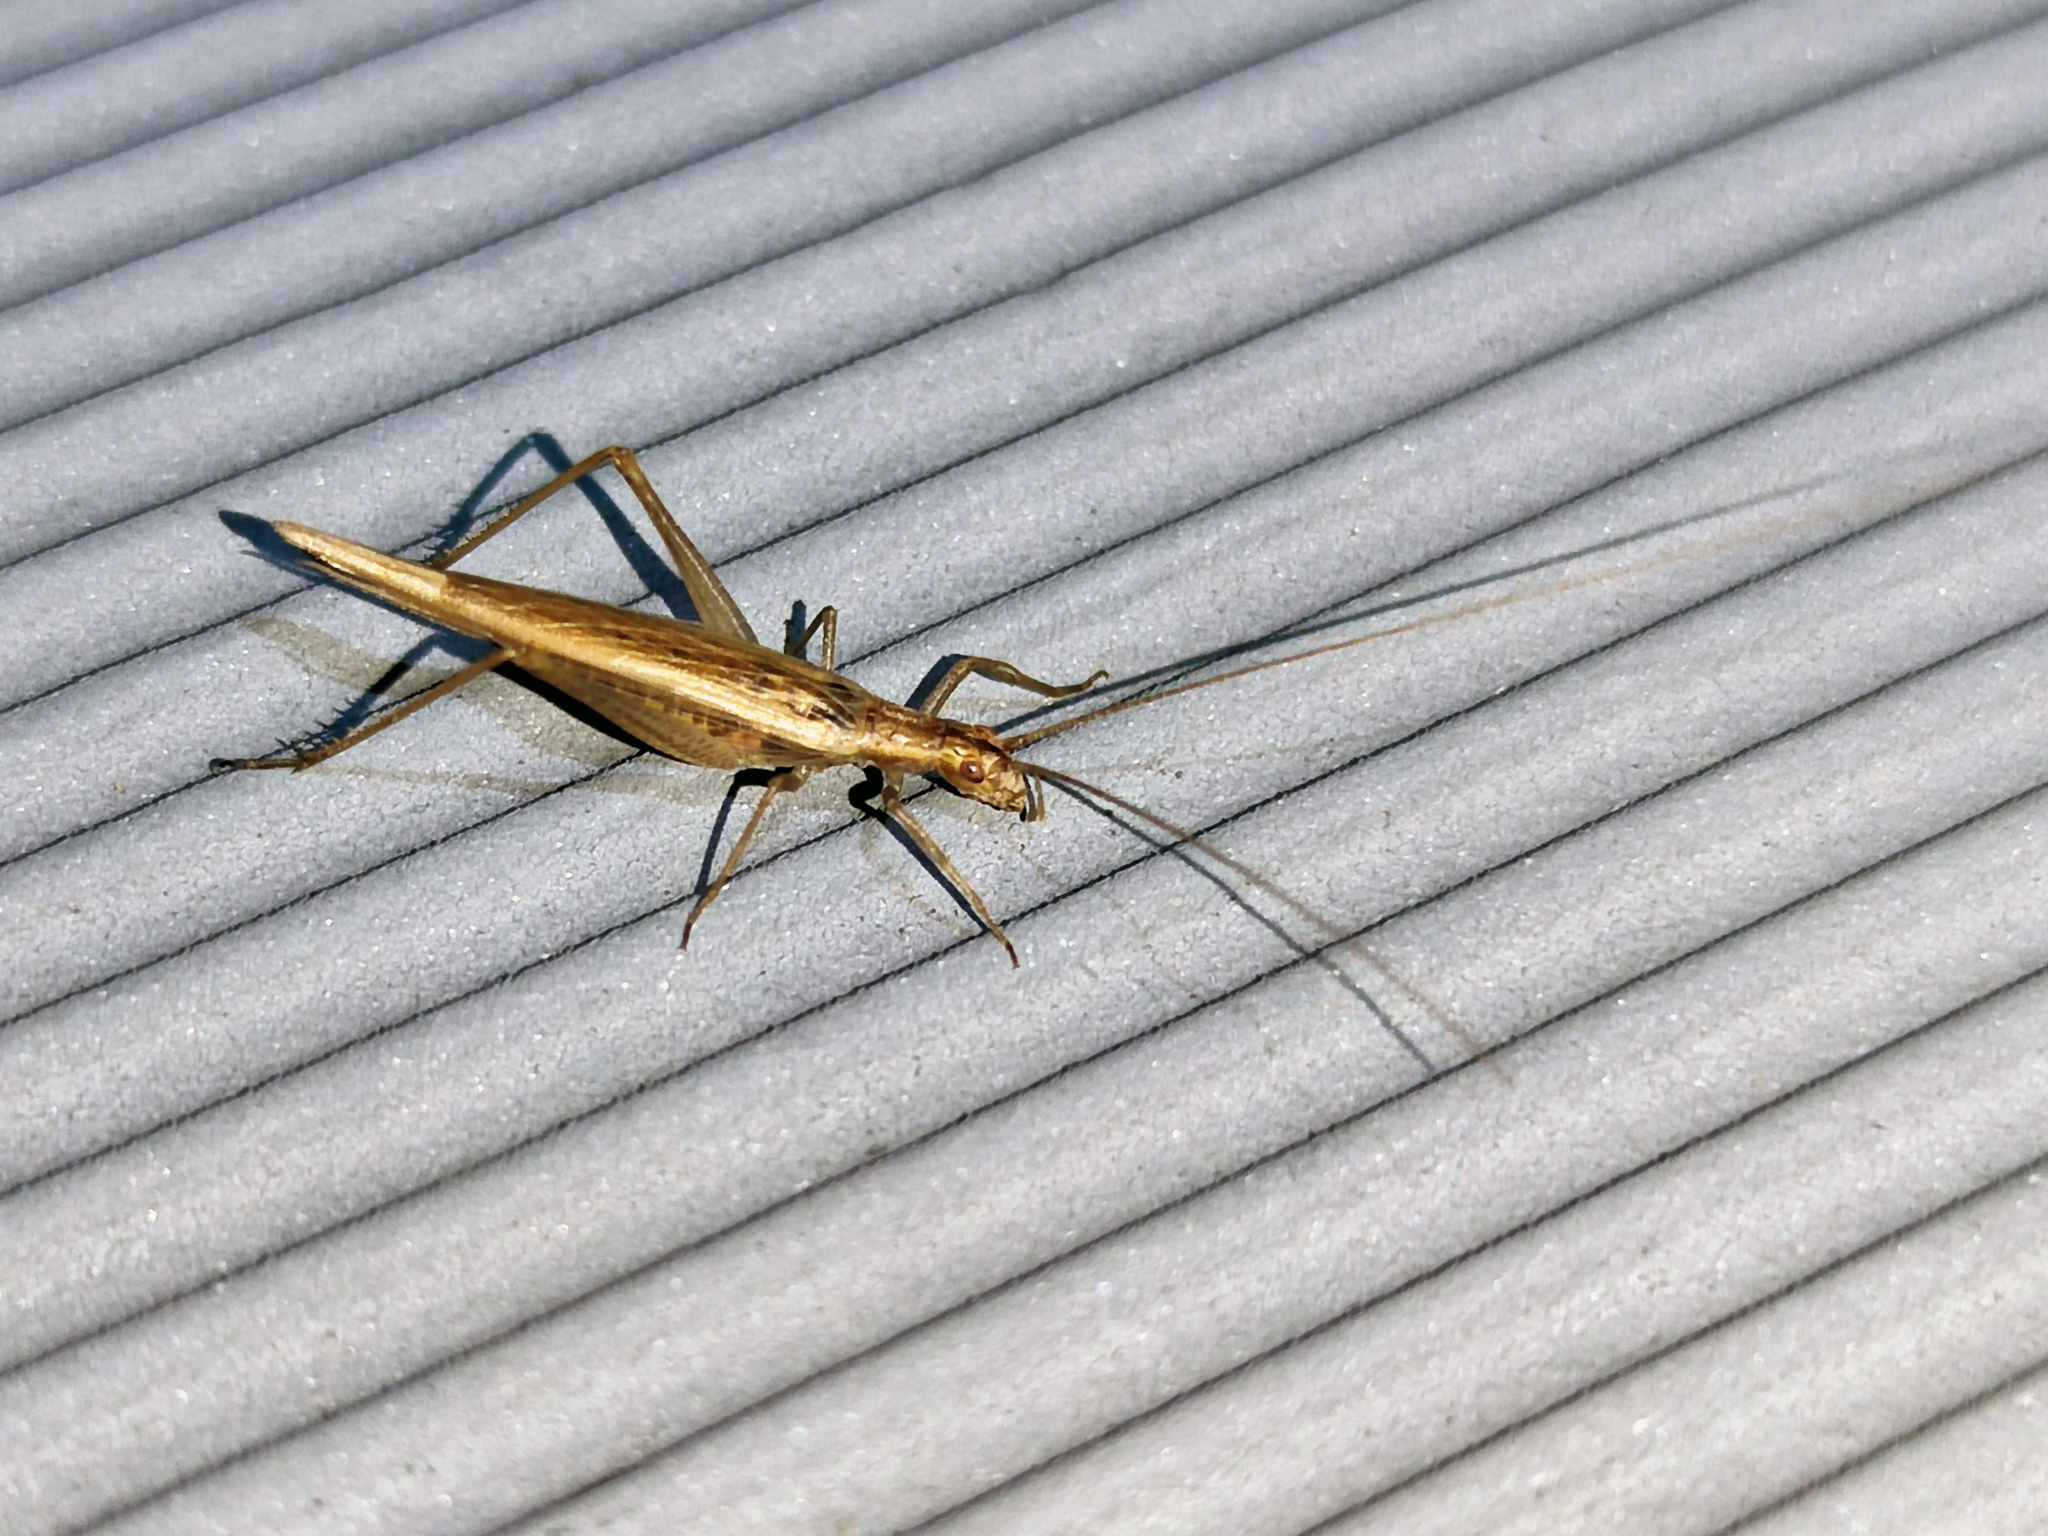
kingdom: Animalia
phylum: Arthropoda
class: Insecta
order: Orthoptera
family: Gryllidae
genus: Oecanthus
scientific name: Oecanthus pellucens
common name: Tree-cricket
